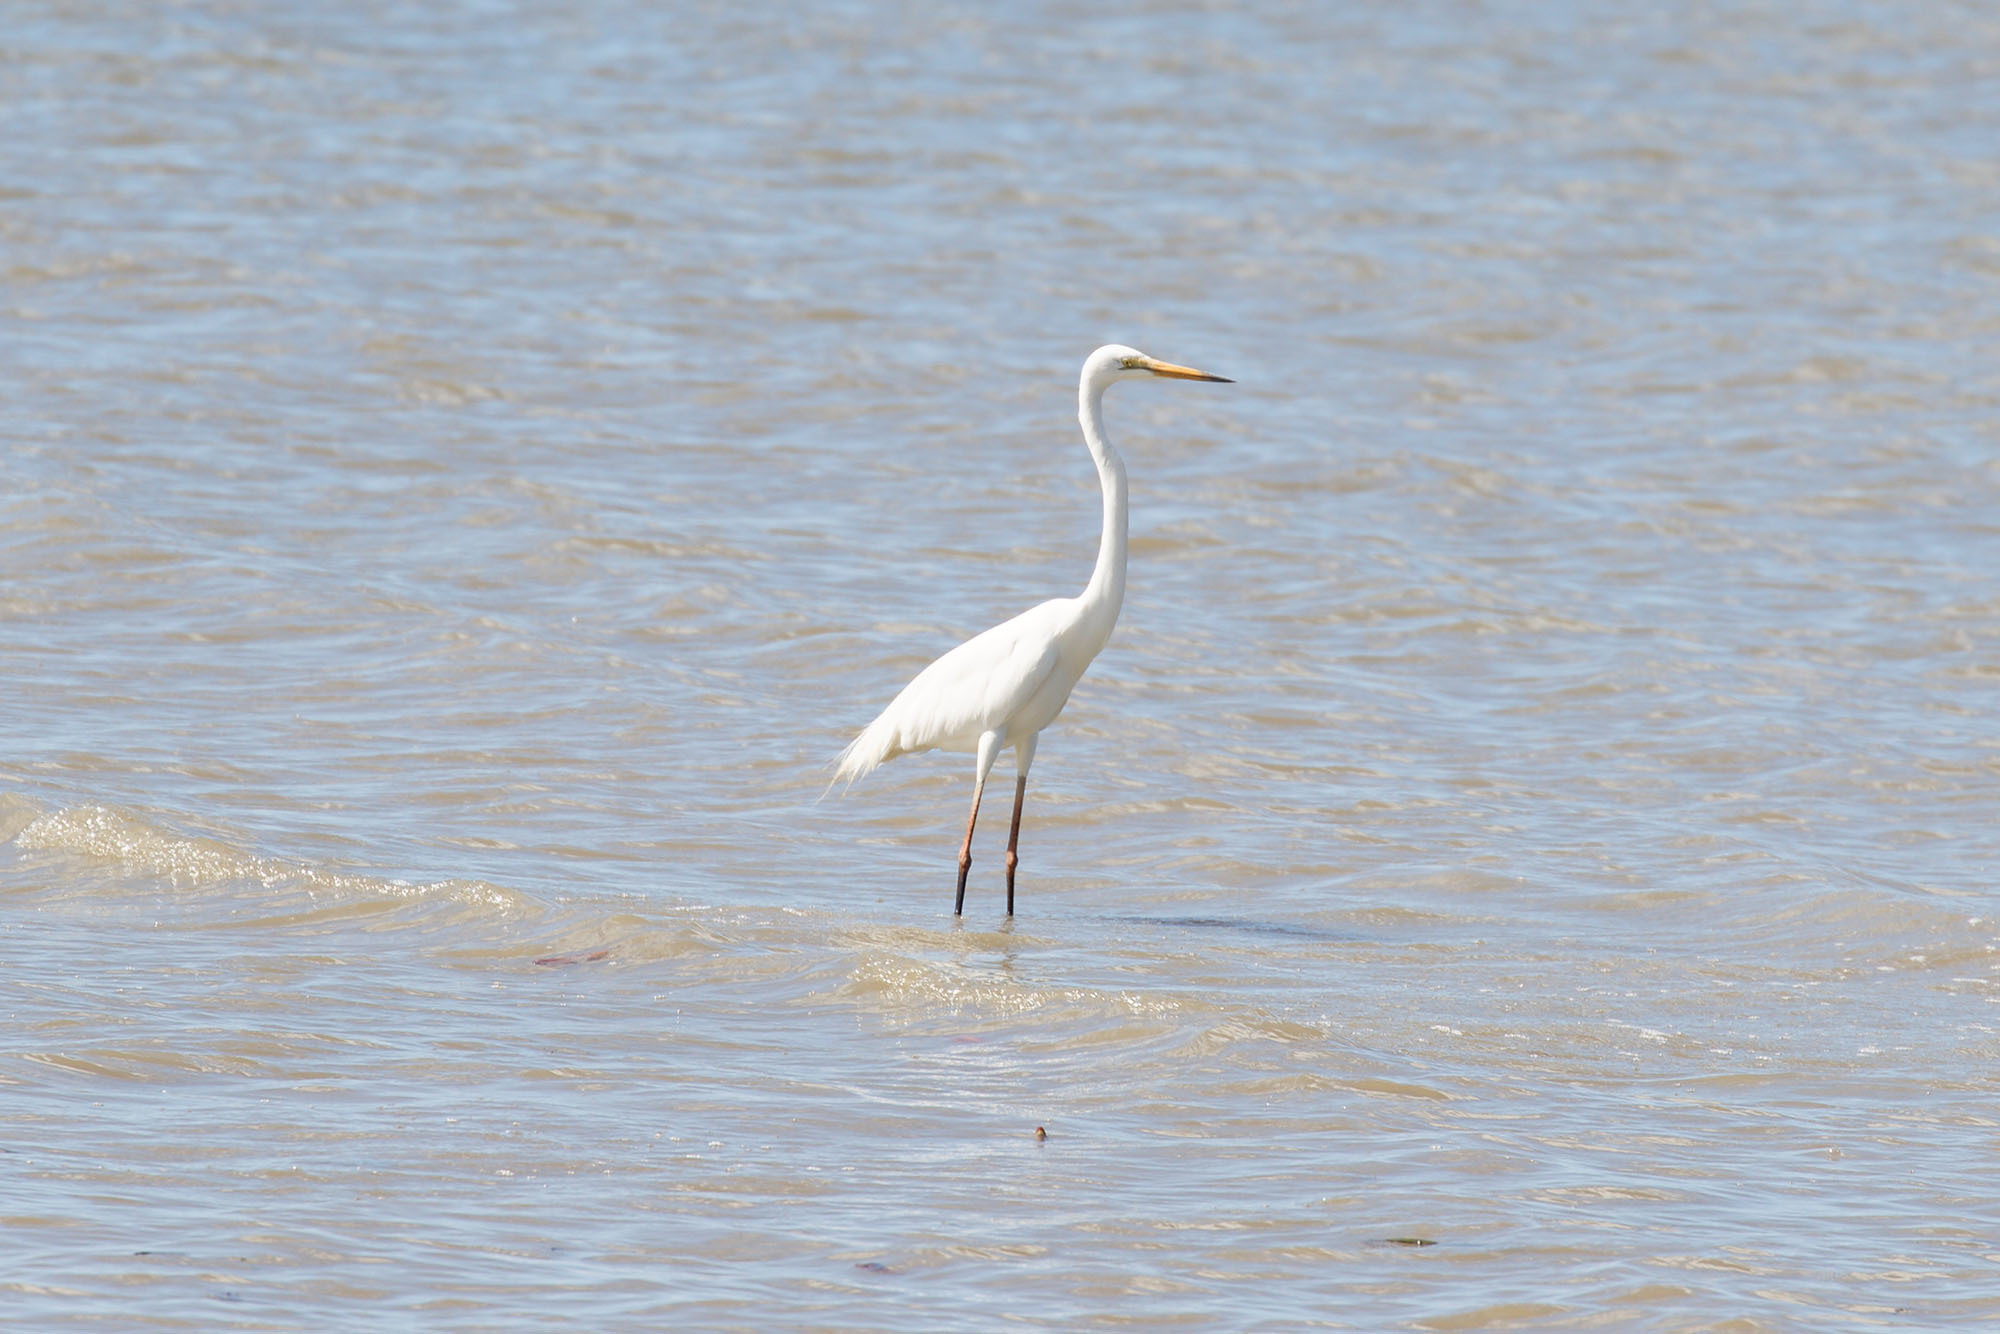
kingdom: Animalia
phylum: Chordata
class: Aves
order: Pelecaniformes
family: Ardeidae
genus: Ardea
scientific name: Ardea modesta
